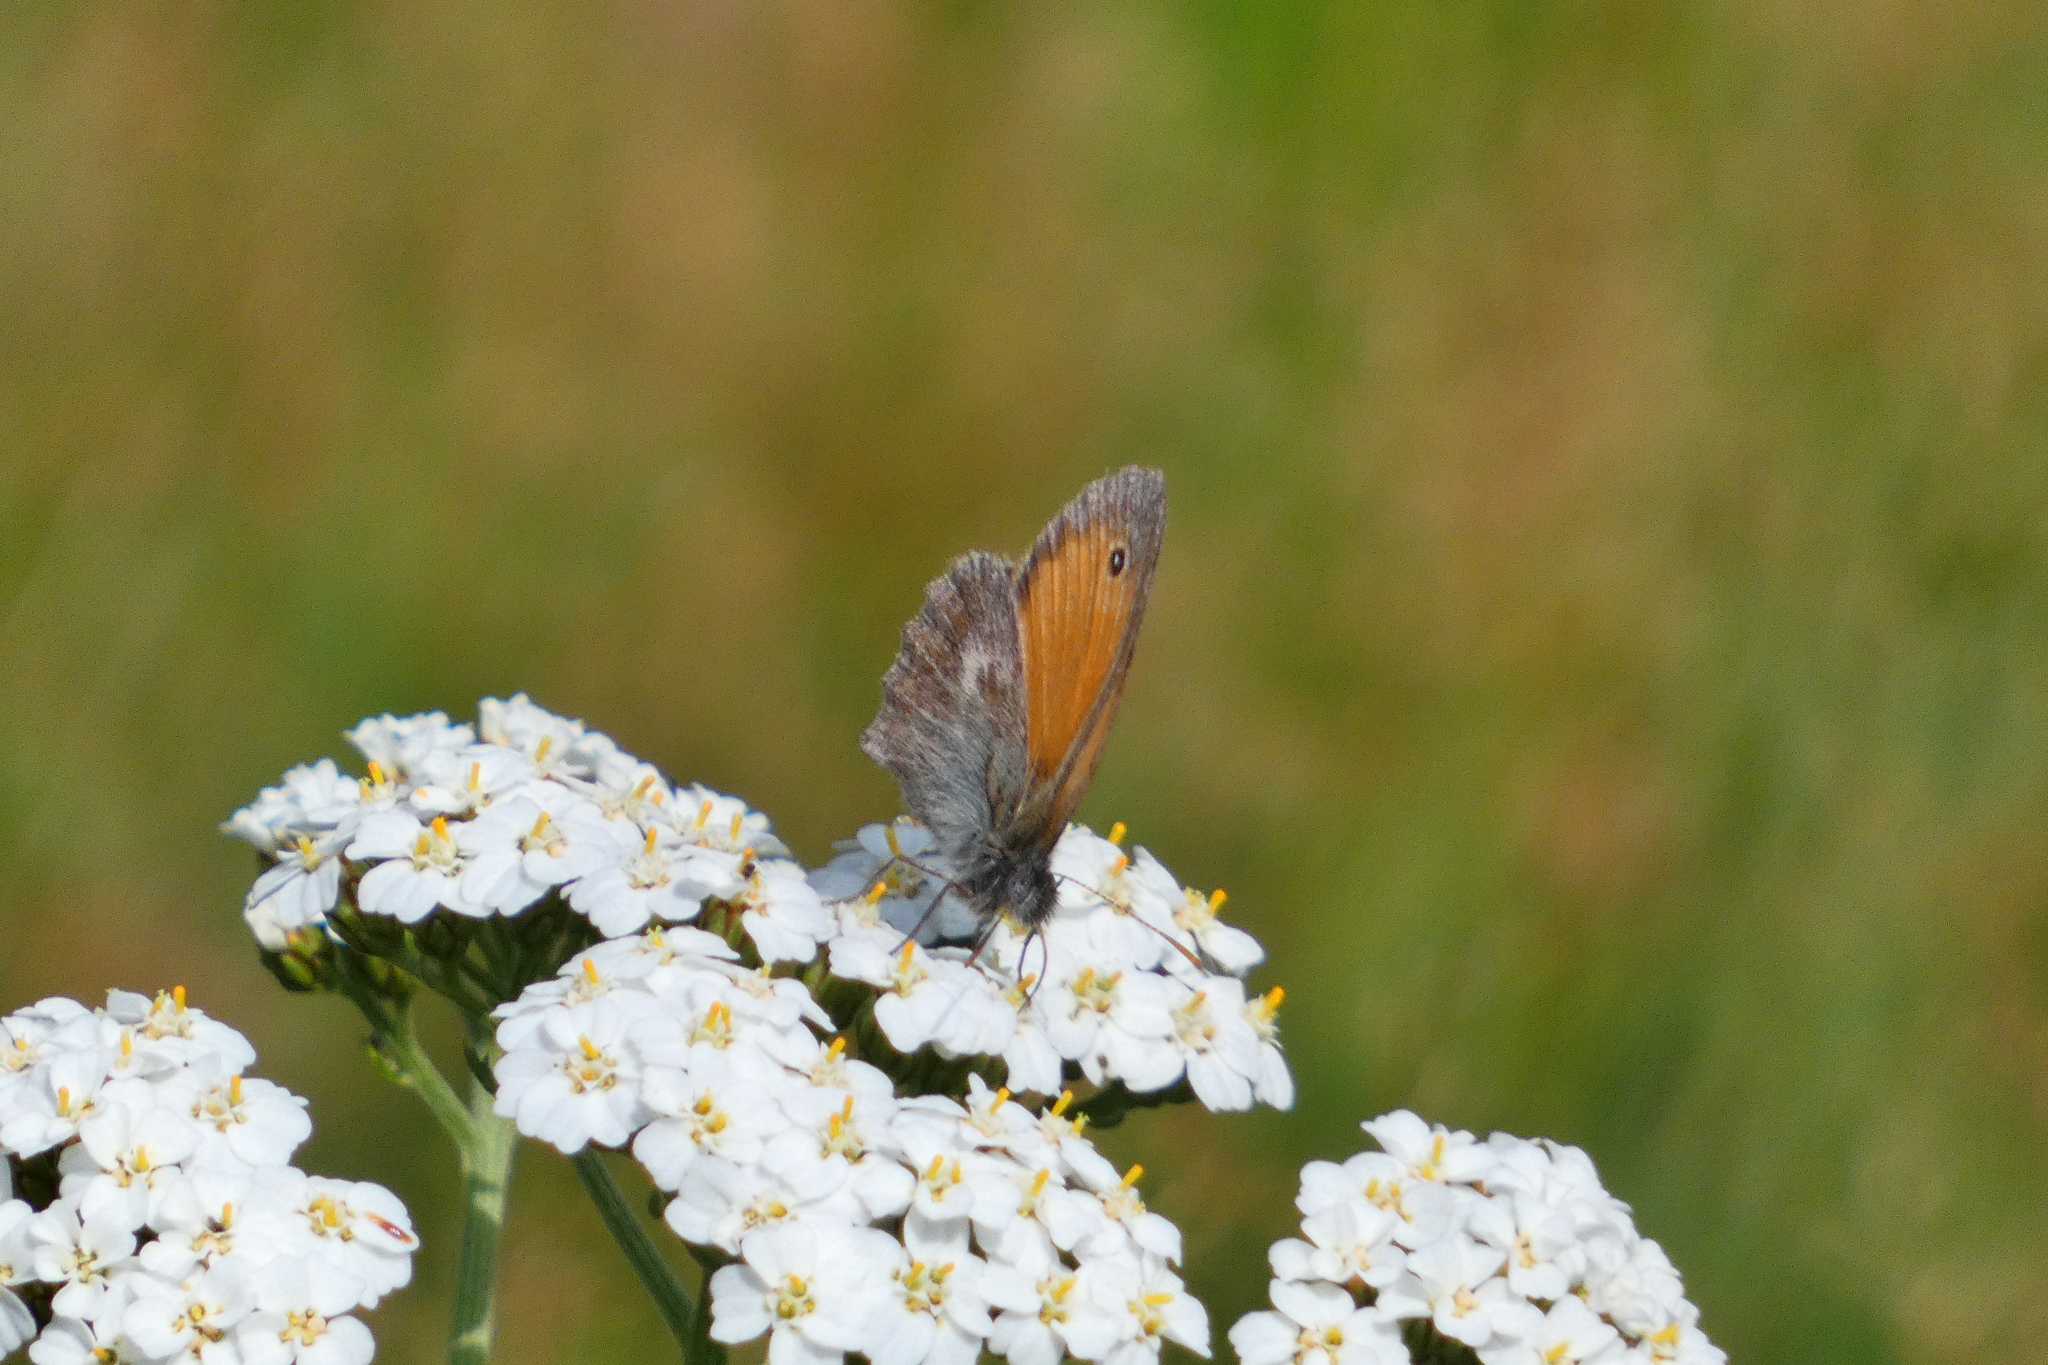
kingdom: Animalia
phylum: Arthropoda
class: Insecta
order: Lepidoptera
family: Nymphalidae
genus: Coenonympha
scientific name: Coenonympha pamphilus
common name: Small heath
